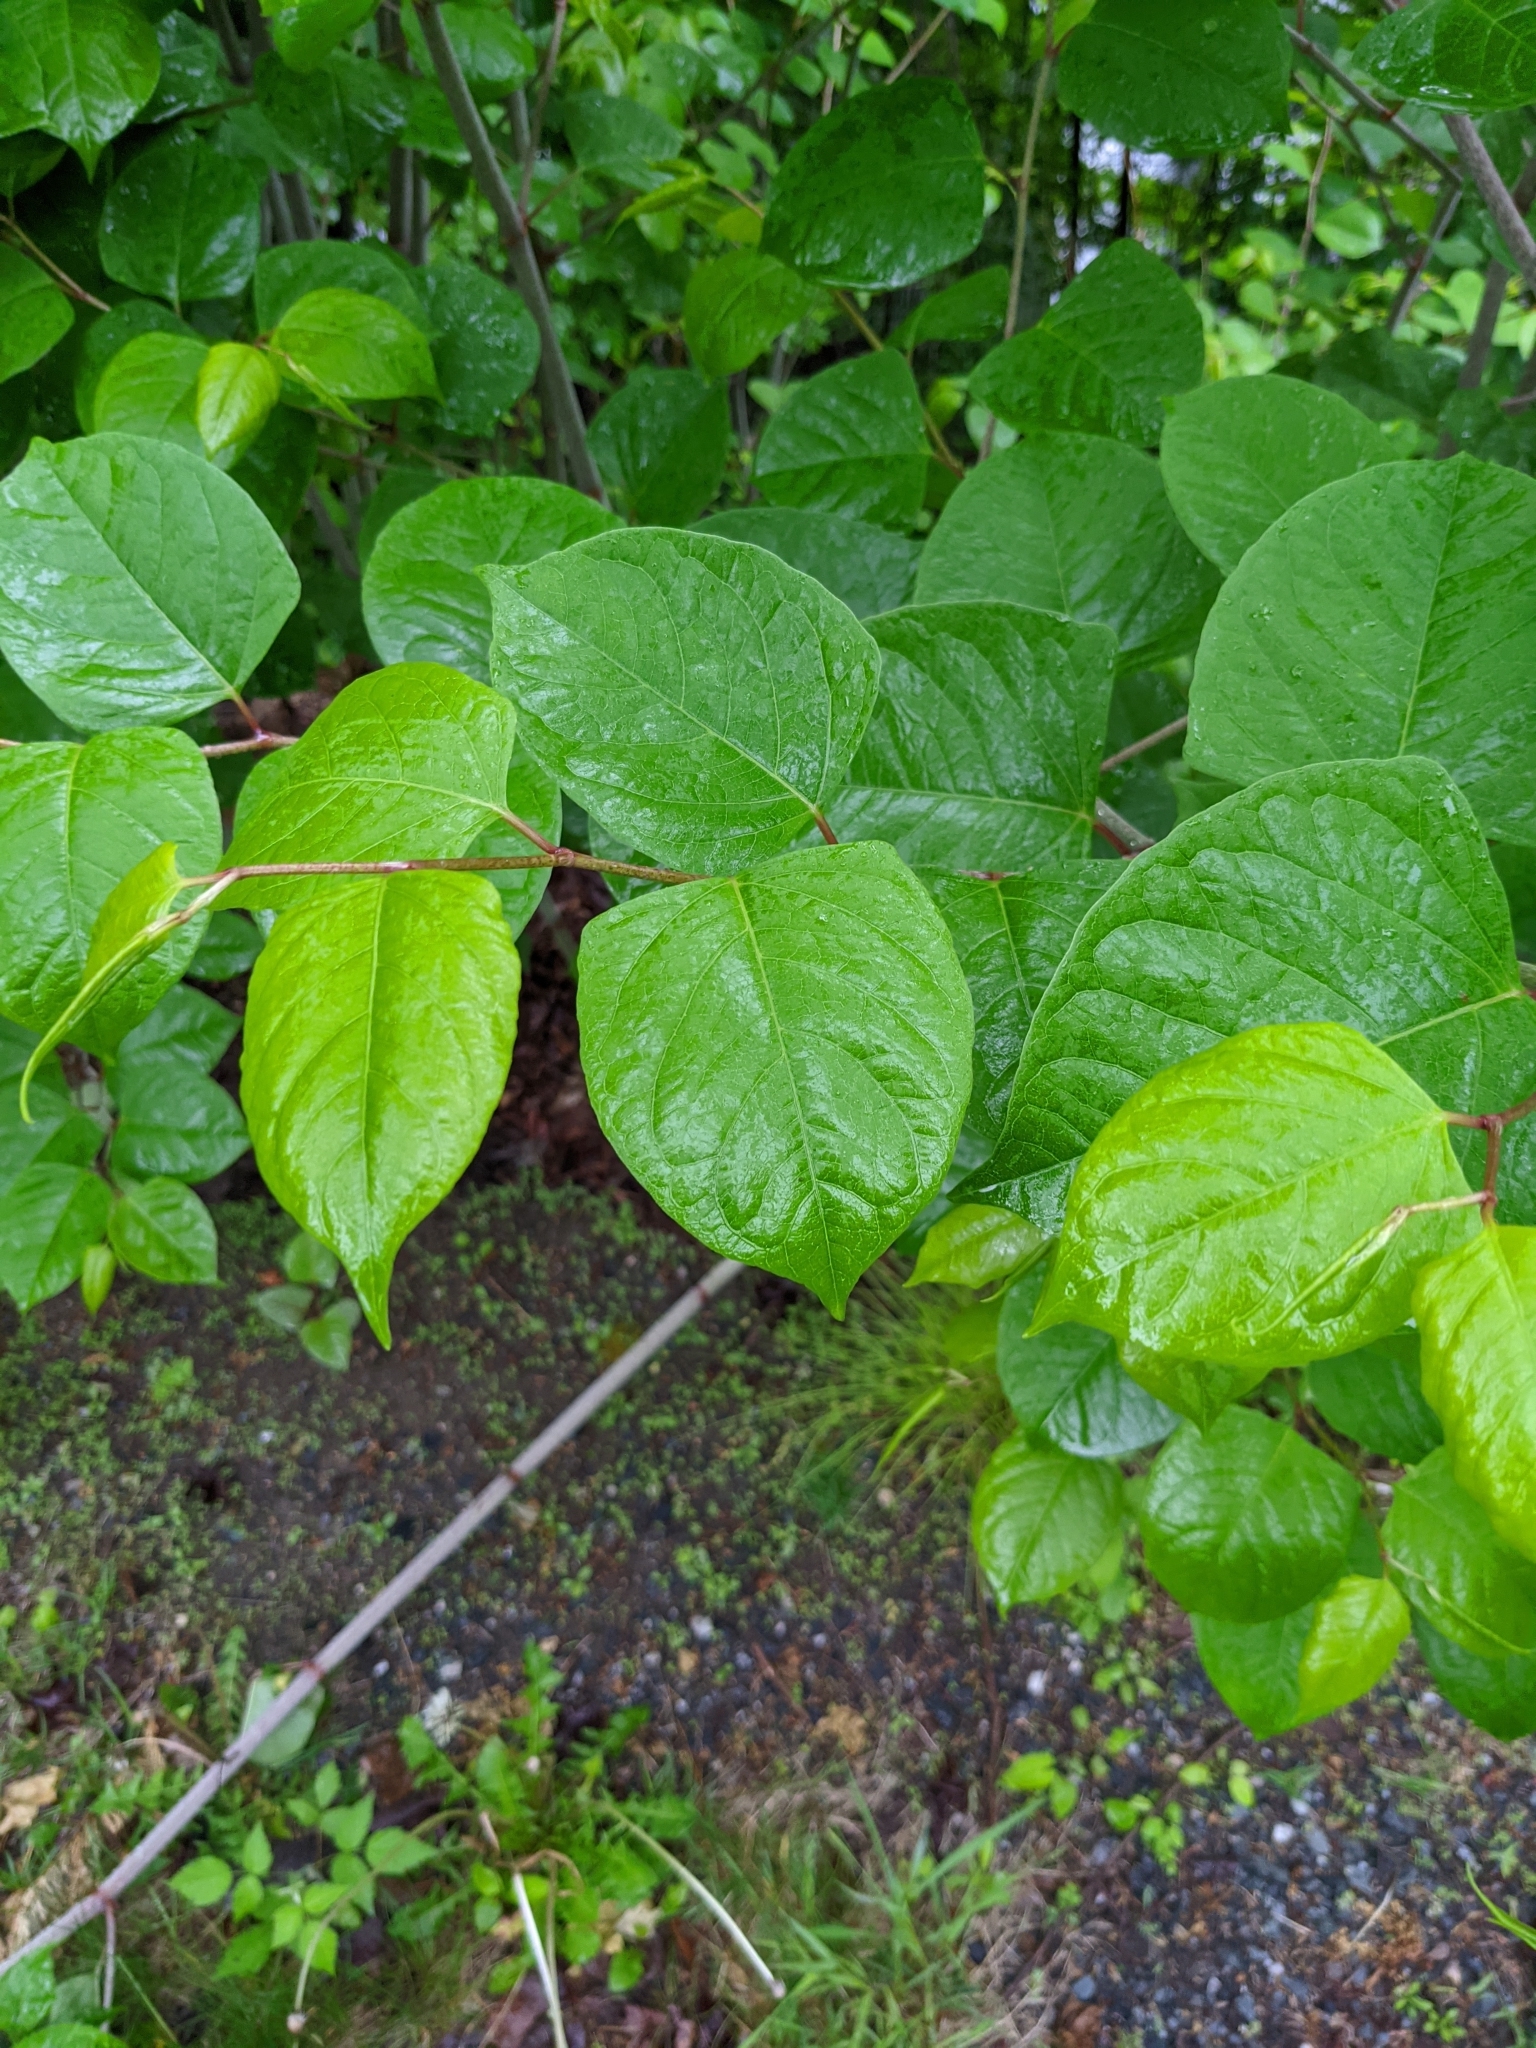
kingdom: Plantae
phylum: Tracheophyta
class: Magnoliopsida
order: Caryophyllales
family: Polygonaceae
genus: Reynoutria
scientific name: Reynoutria japonica
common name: Japanese knotweed
